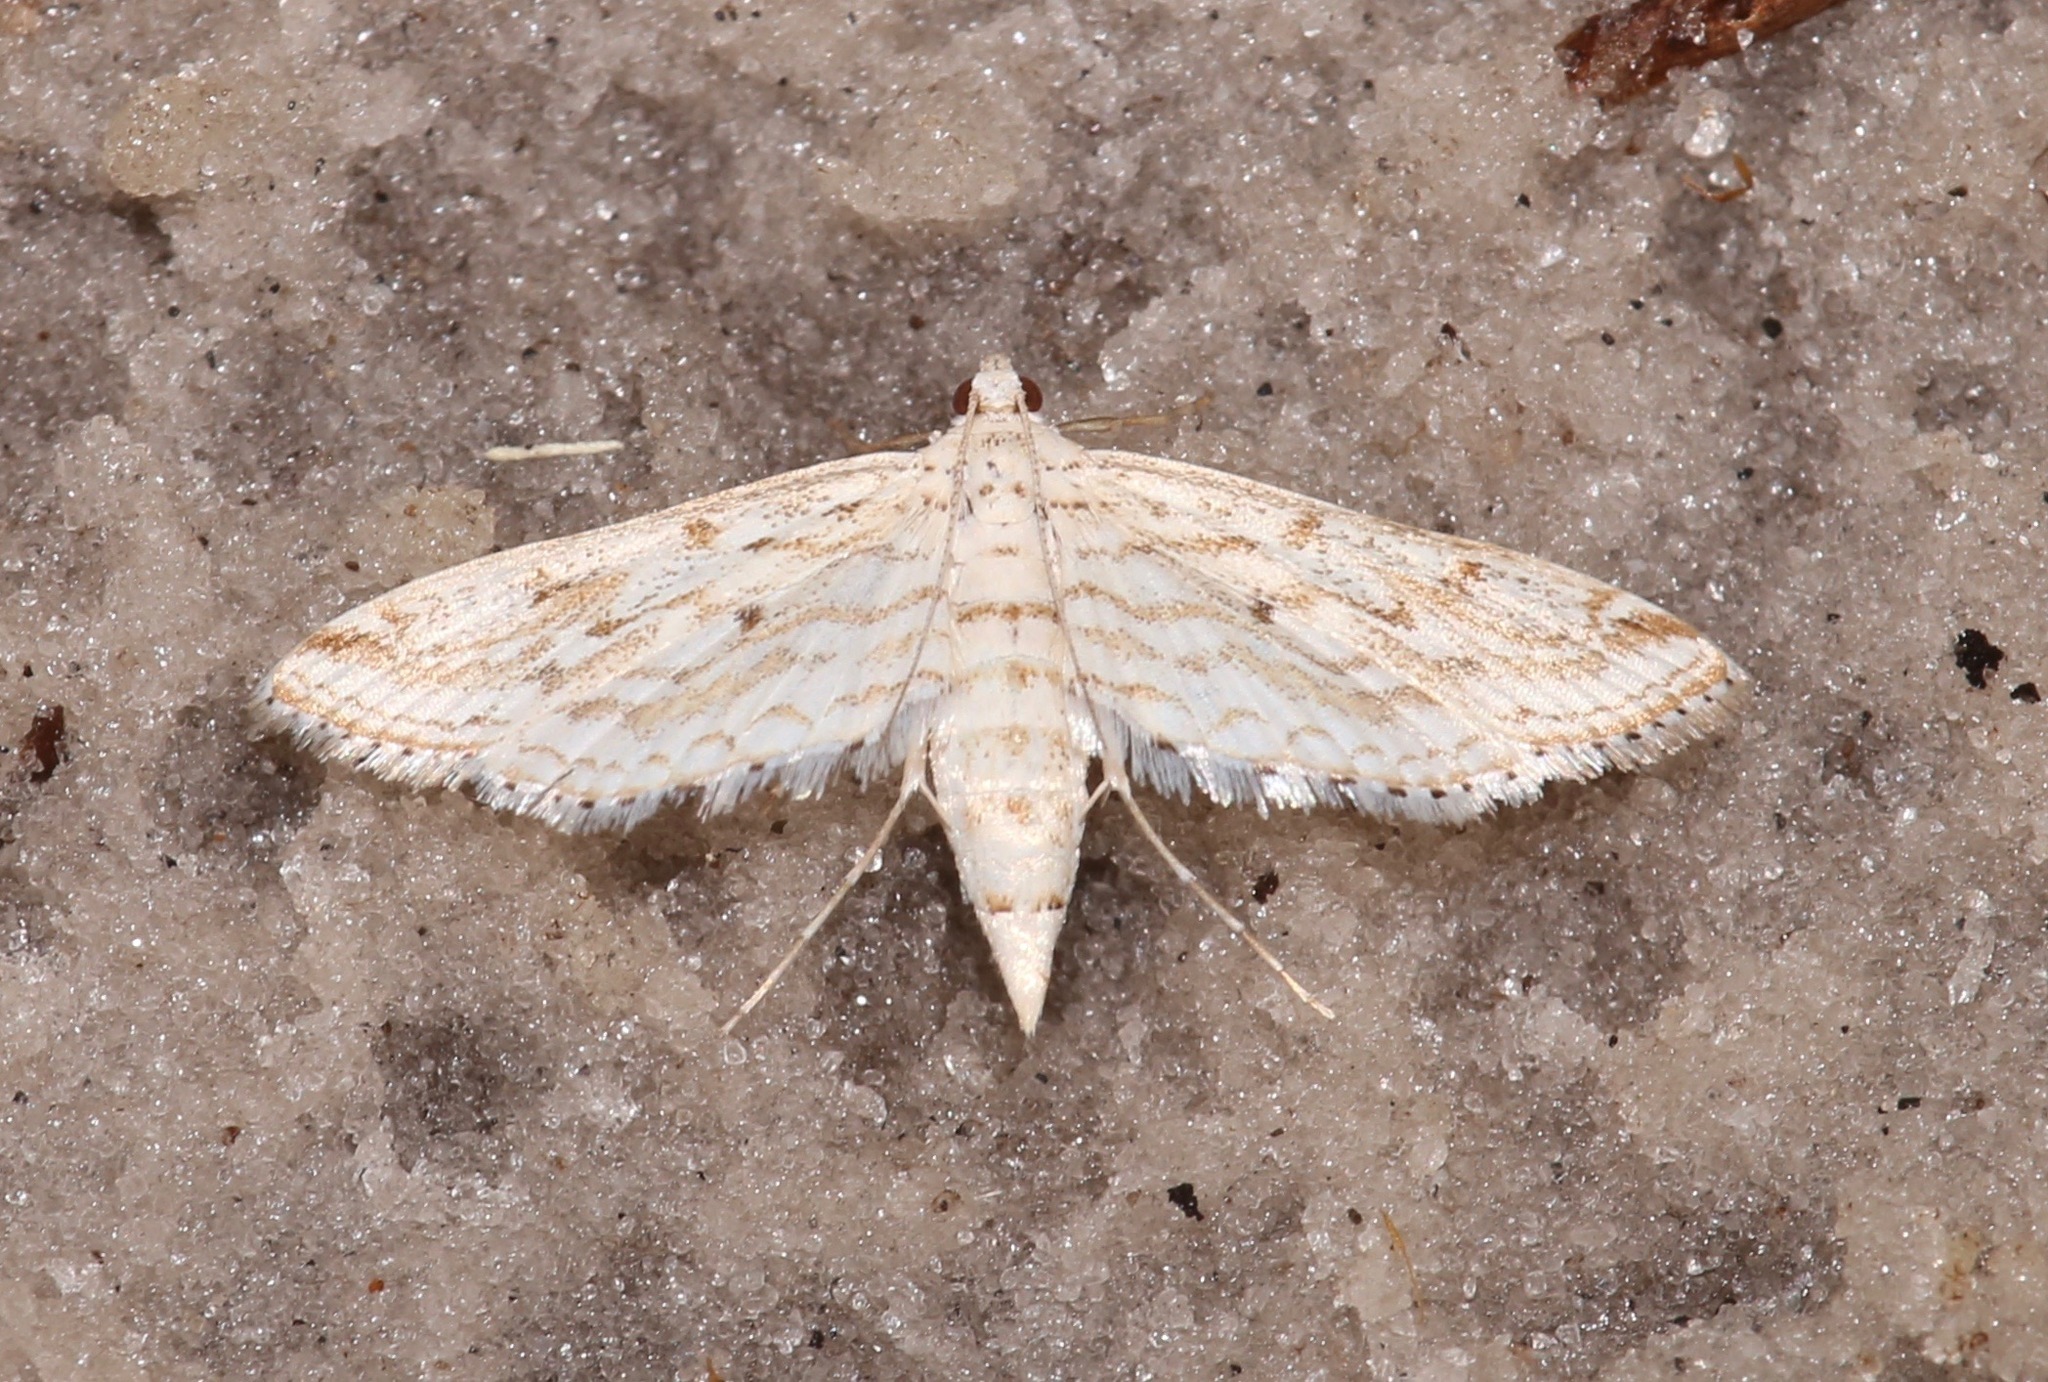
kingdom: Animalia
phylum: Arthropoda
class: Insecta
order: Lepidoptera
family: Crambidae
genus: Parapoynx
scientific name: Parapoynx allionealis
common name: Bladderwort casemaker
